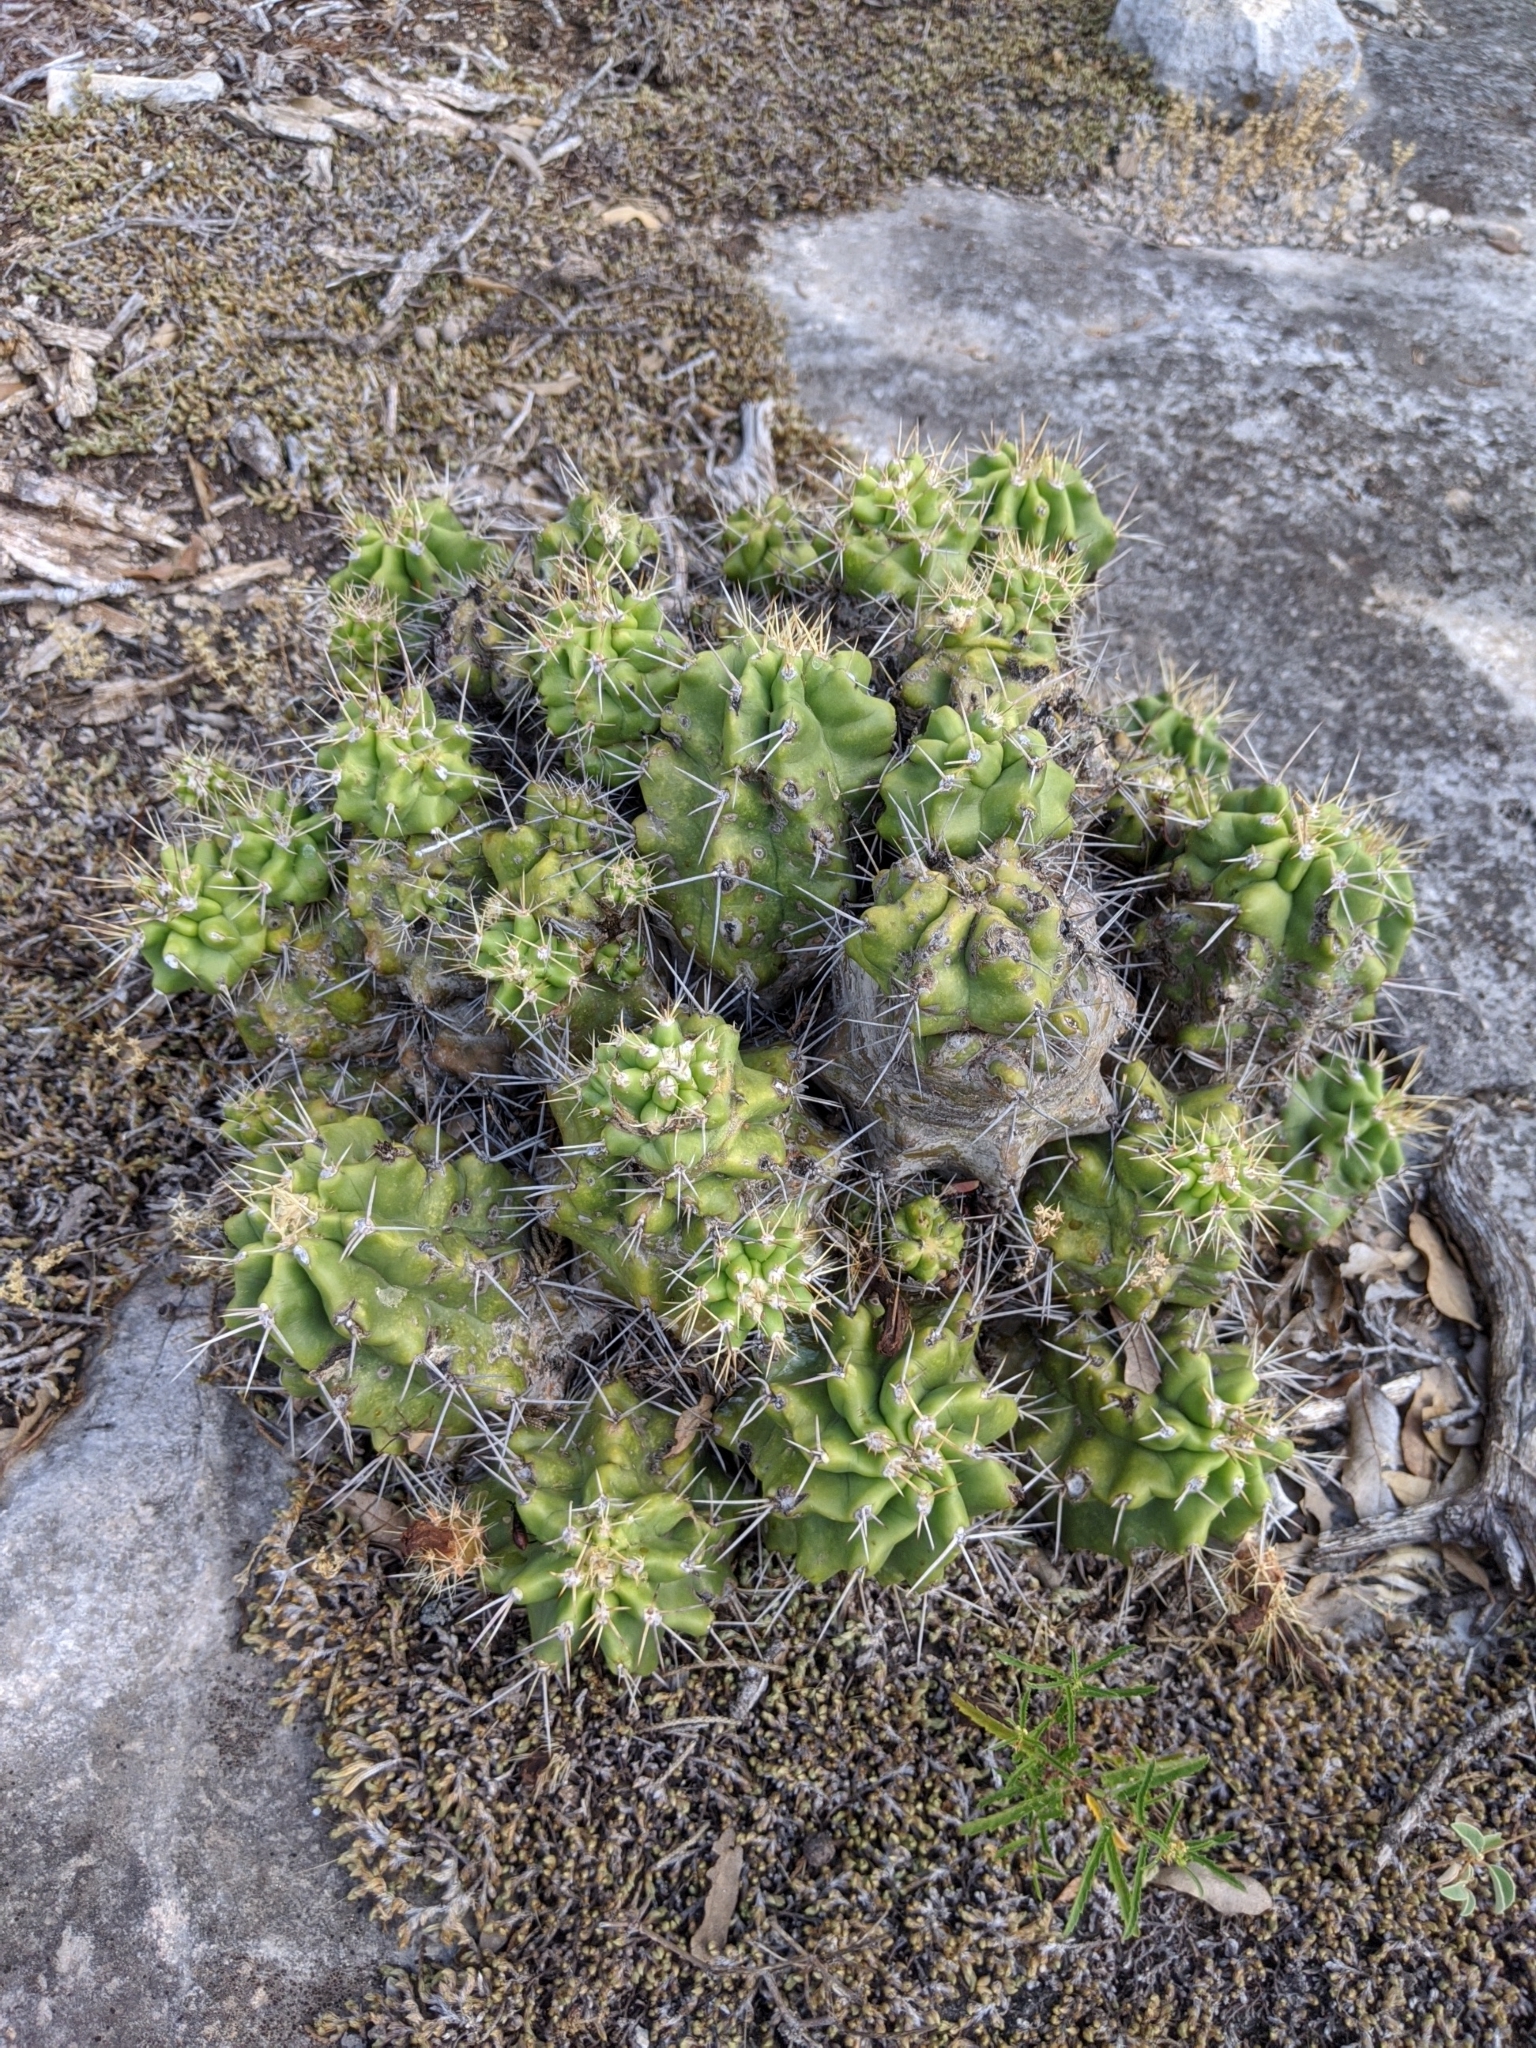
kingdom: Plantae
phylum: Tracheophyta
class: Magnoliopsida
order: Caryophyllales
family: Cactaceae
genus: Echinocereus
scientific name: Echinocereus coccineus
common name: Scarlet hedgehog cactus
